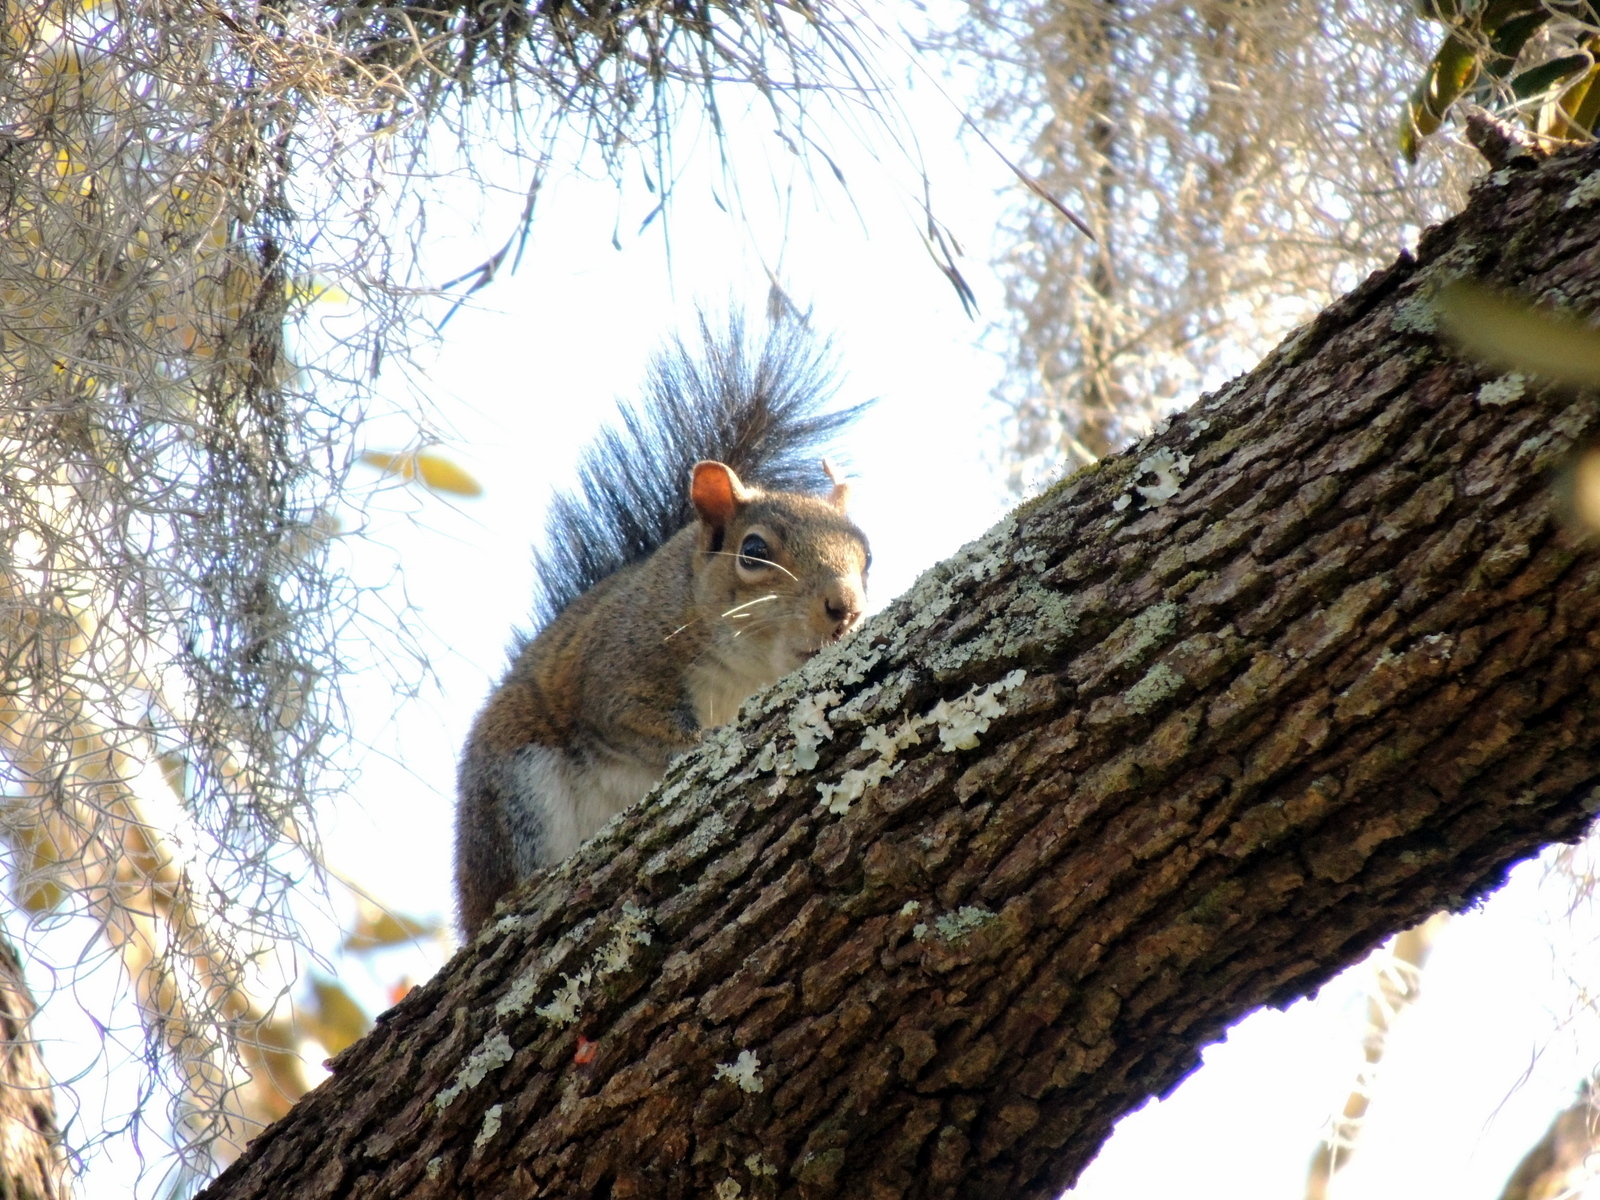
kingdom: Animalia
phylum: Chordata
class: Mammalia
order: Rodentia
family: Sciuridae
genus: Sciurus
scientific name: Sciurus carolinensis
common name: Eastern gray squirrel
